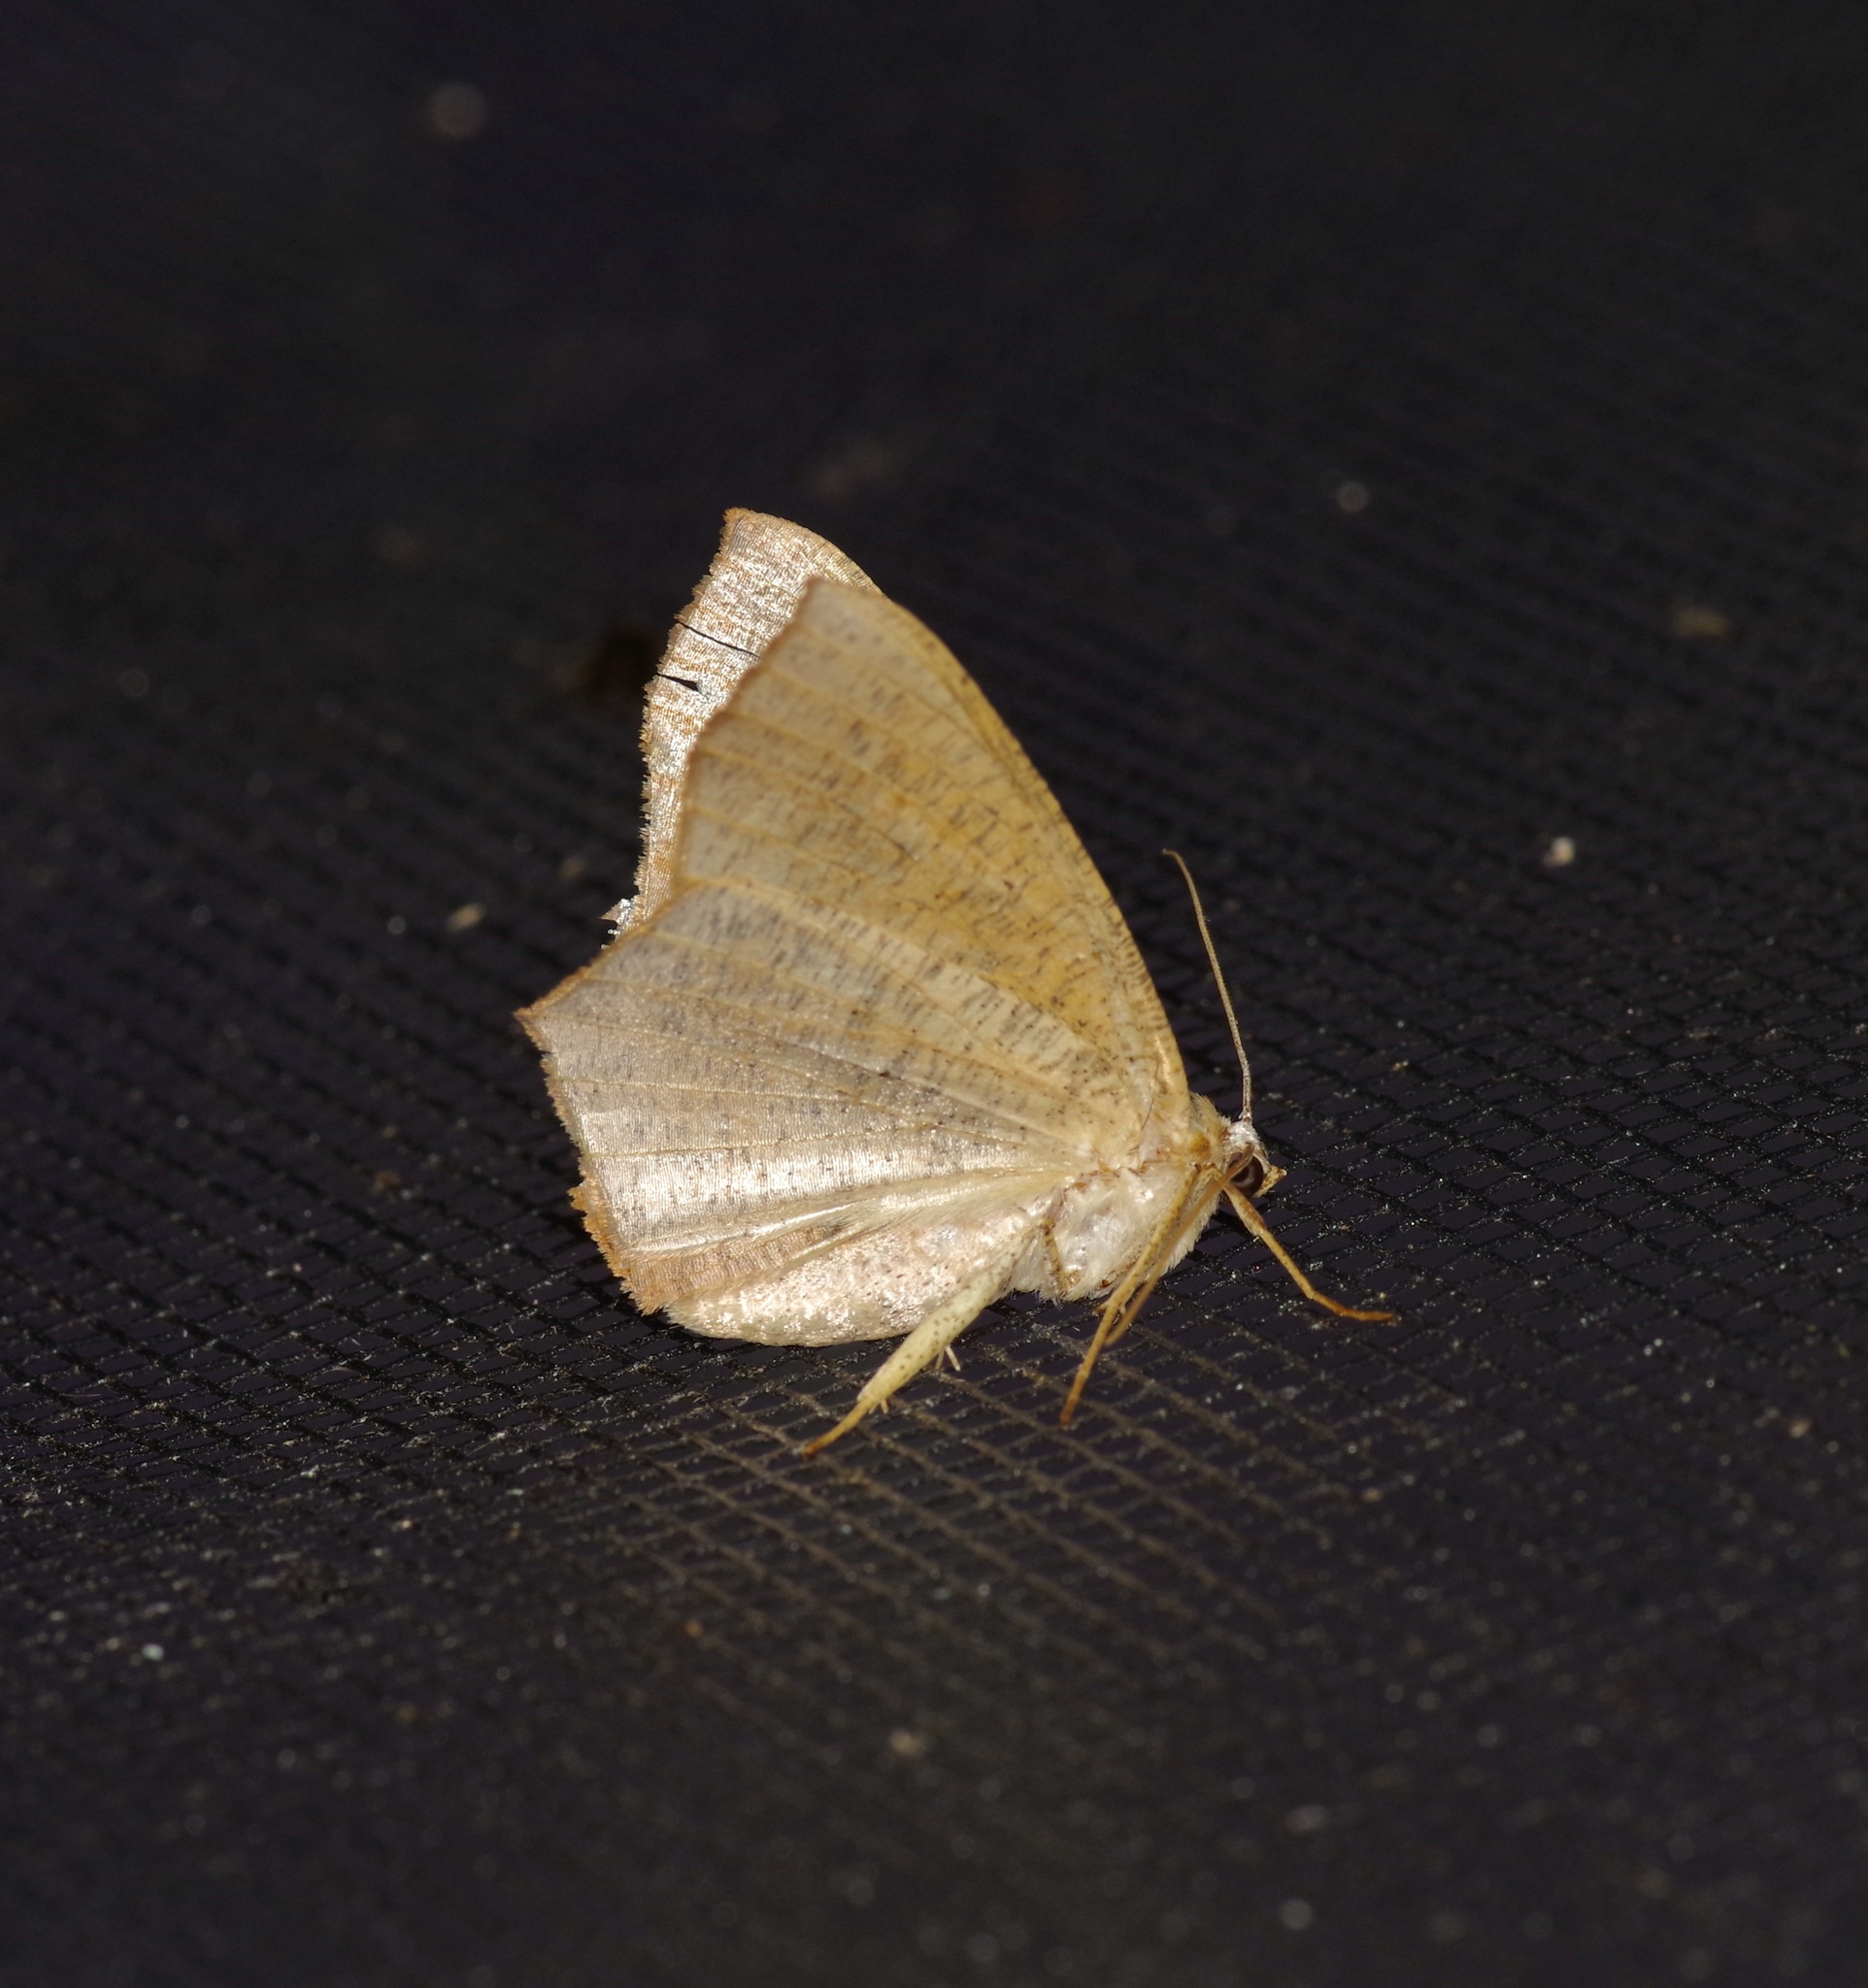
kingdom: Animalia
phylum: Arthropoda
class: Insecta
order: Lepidoptera
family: Geometridae
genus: Prochoerodes
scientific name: Prochoerodes lineola
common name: Large maple spanworm
